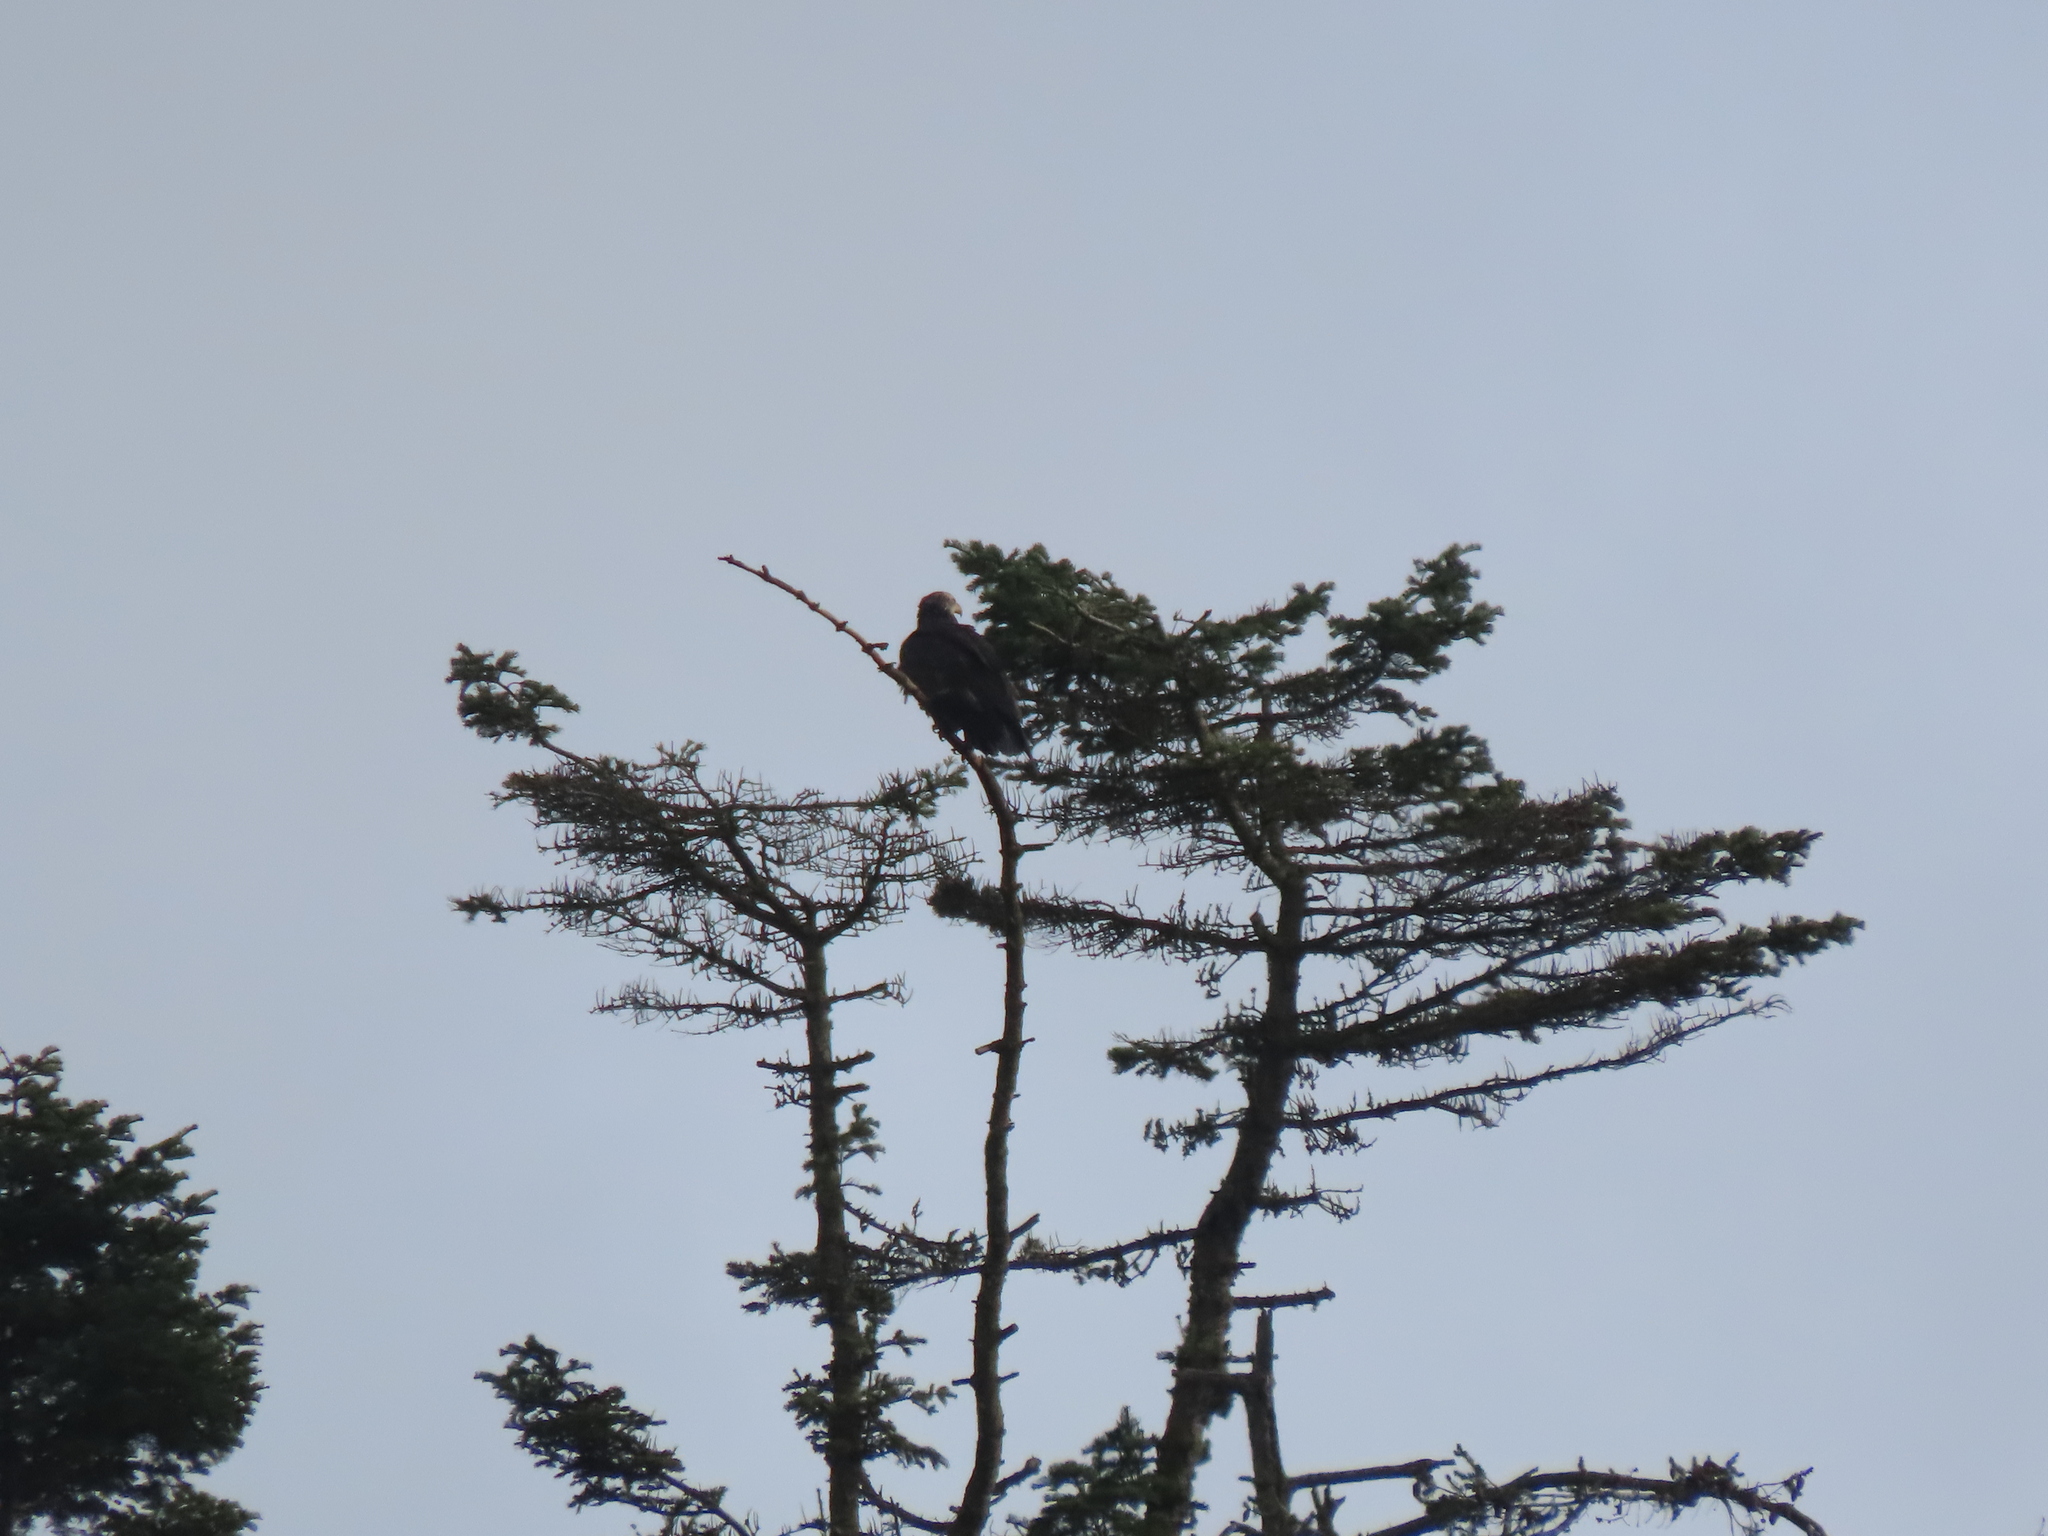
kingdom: Animalia
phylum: Chordata
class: Aves
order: Accipitriformes
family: Accipitridae
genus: Haliaeetus
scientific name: Haliaeetus leucocephalus
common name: Bald eagle
